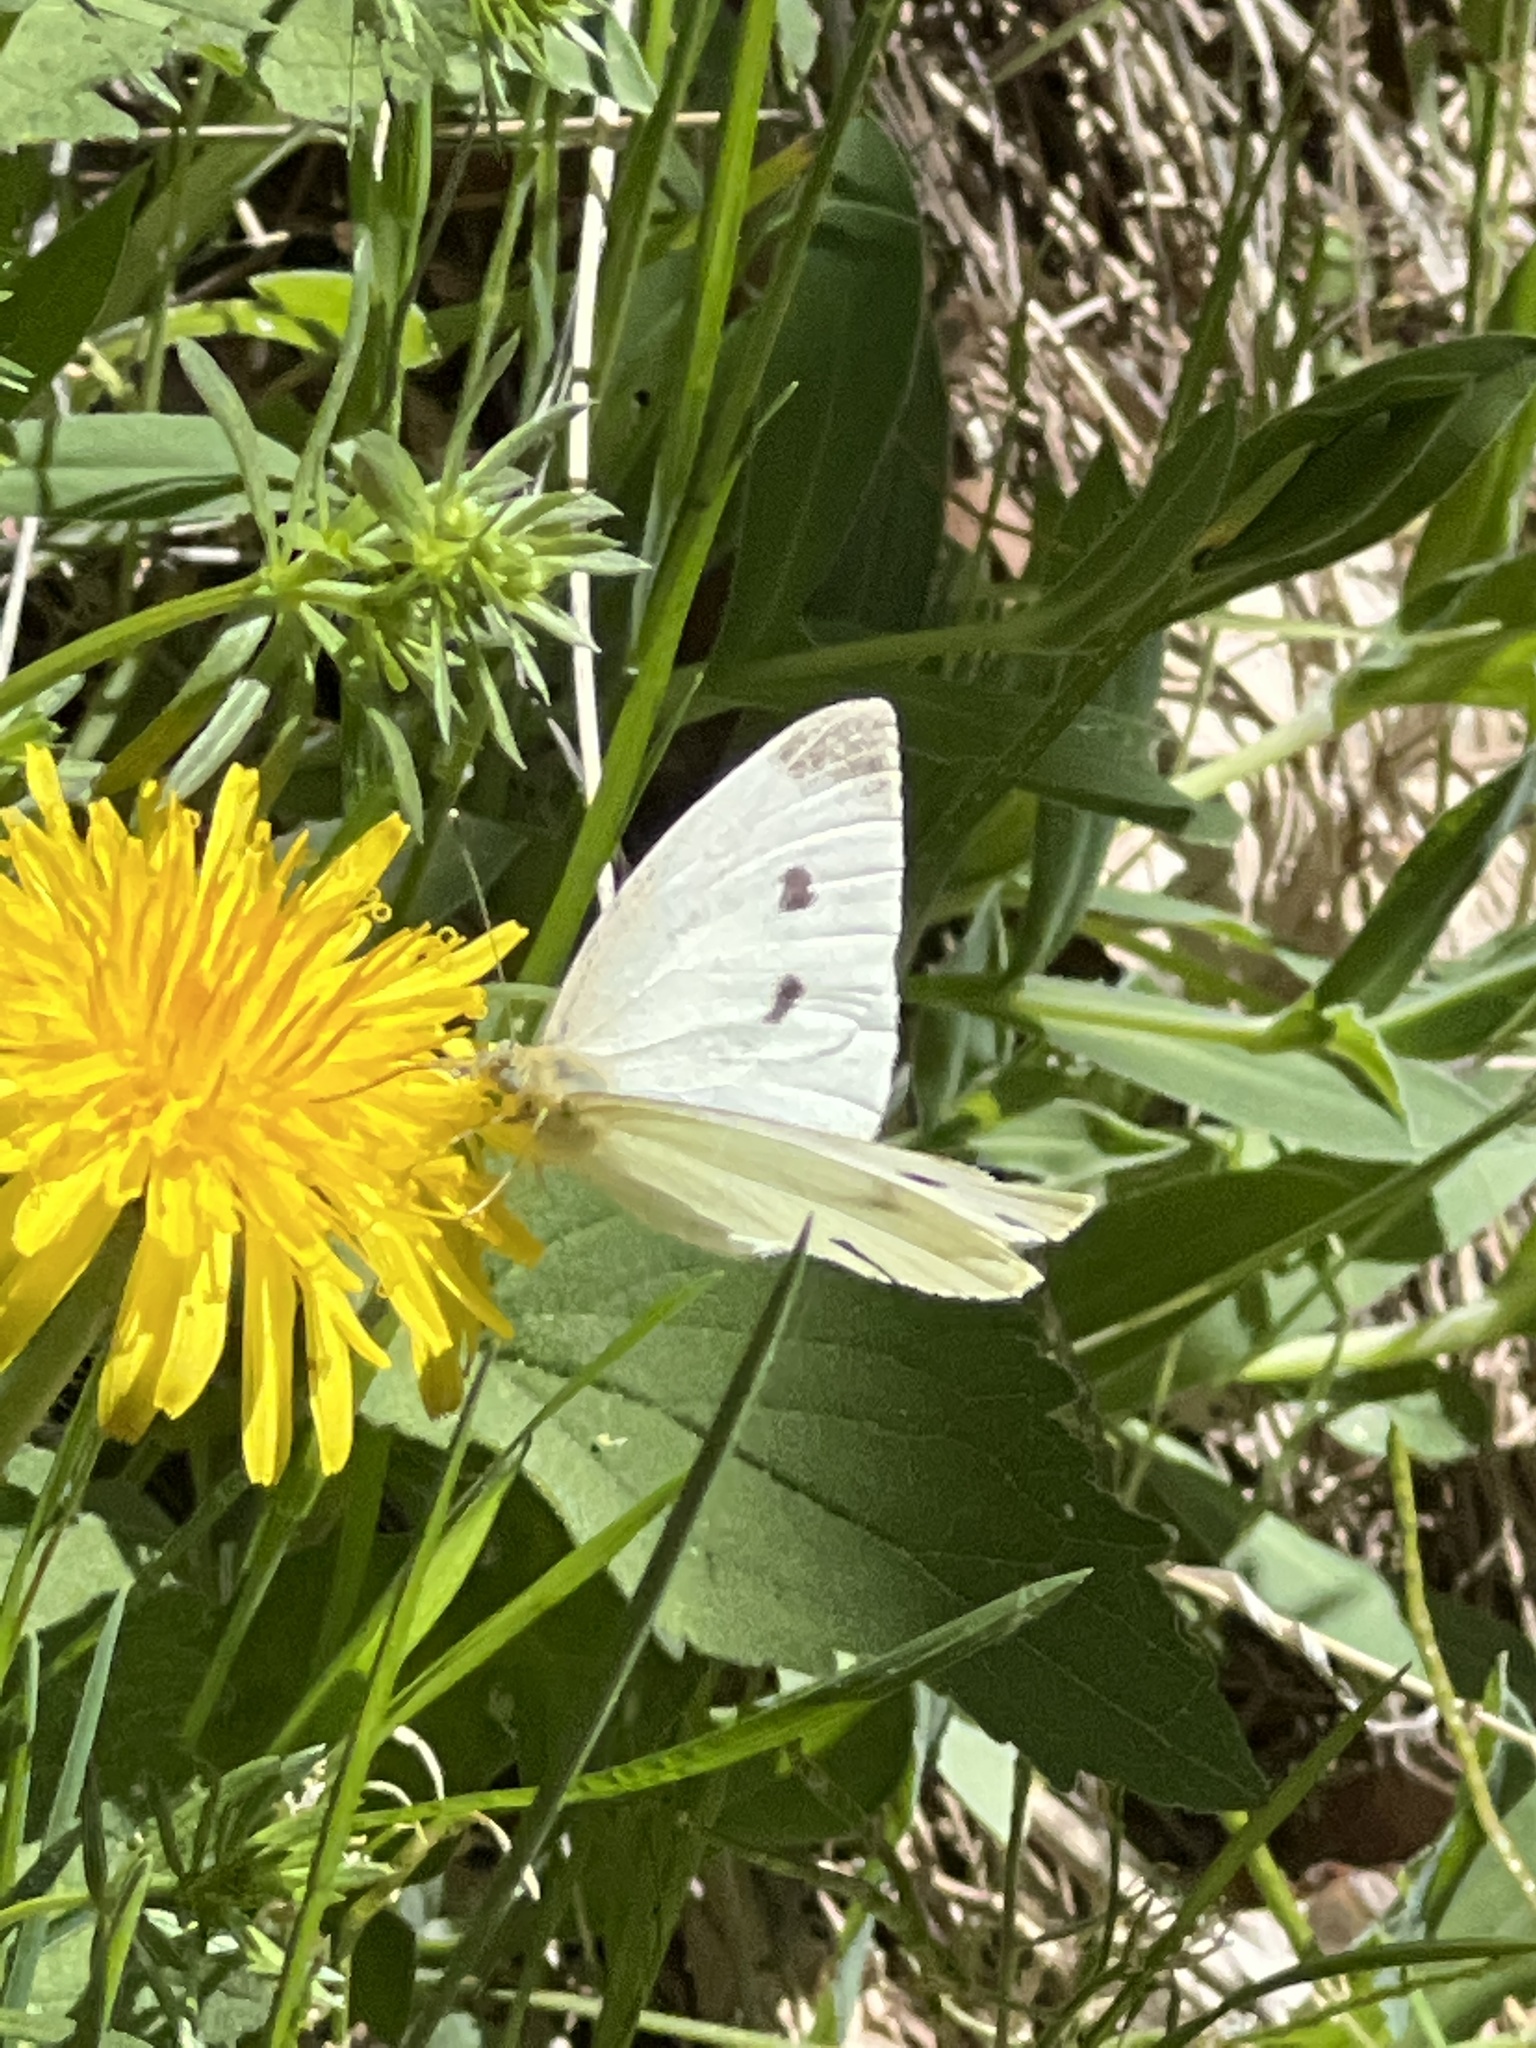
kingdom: Animalia
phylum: Arthropoda
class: Insecta
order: Lepidoptera
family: Pieridae
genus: Pieris
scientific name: Pieris rapae
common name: Small white
